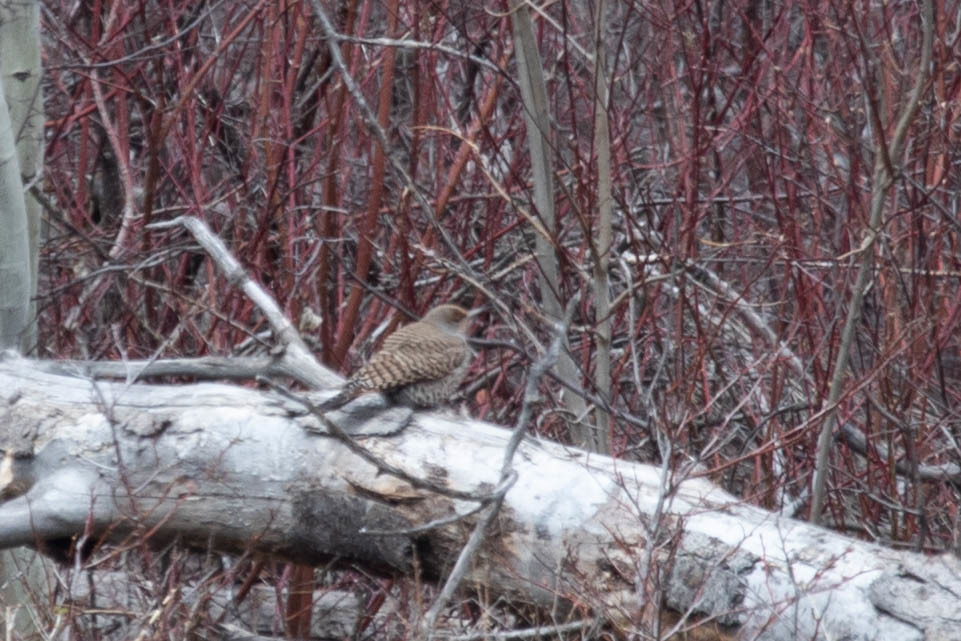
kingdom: Animalia
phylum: Chordata
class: Aves
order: Piciformes
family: Picidae
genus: Colaptes
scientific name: Colaptes auratus
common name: Northern flicker
